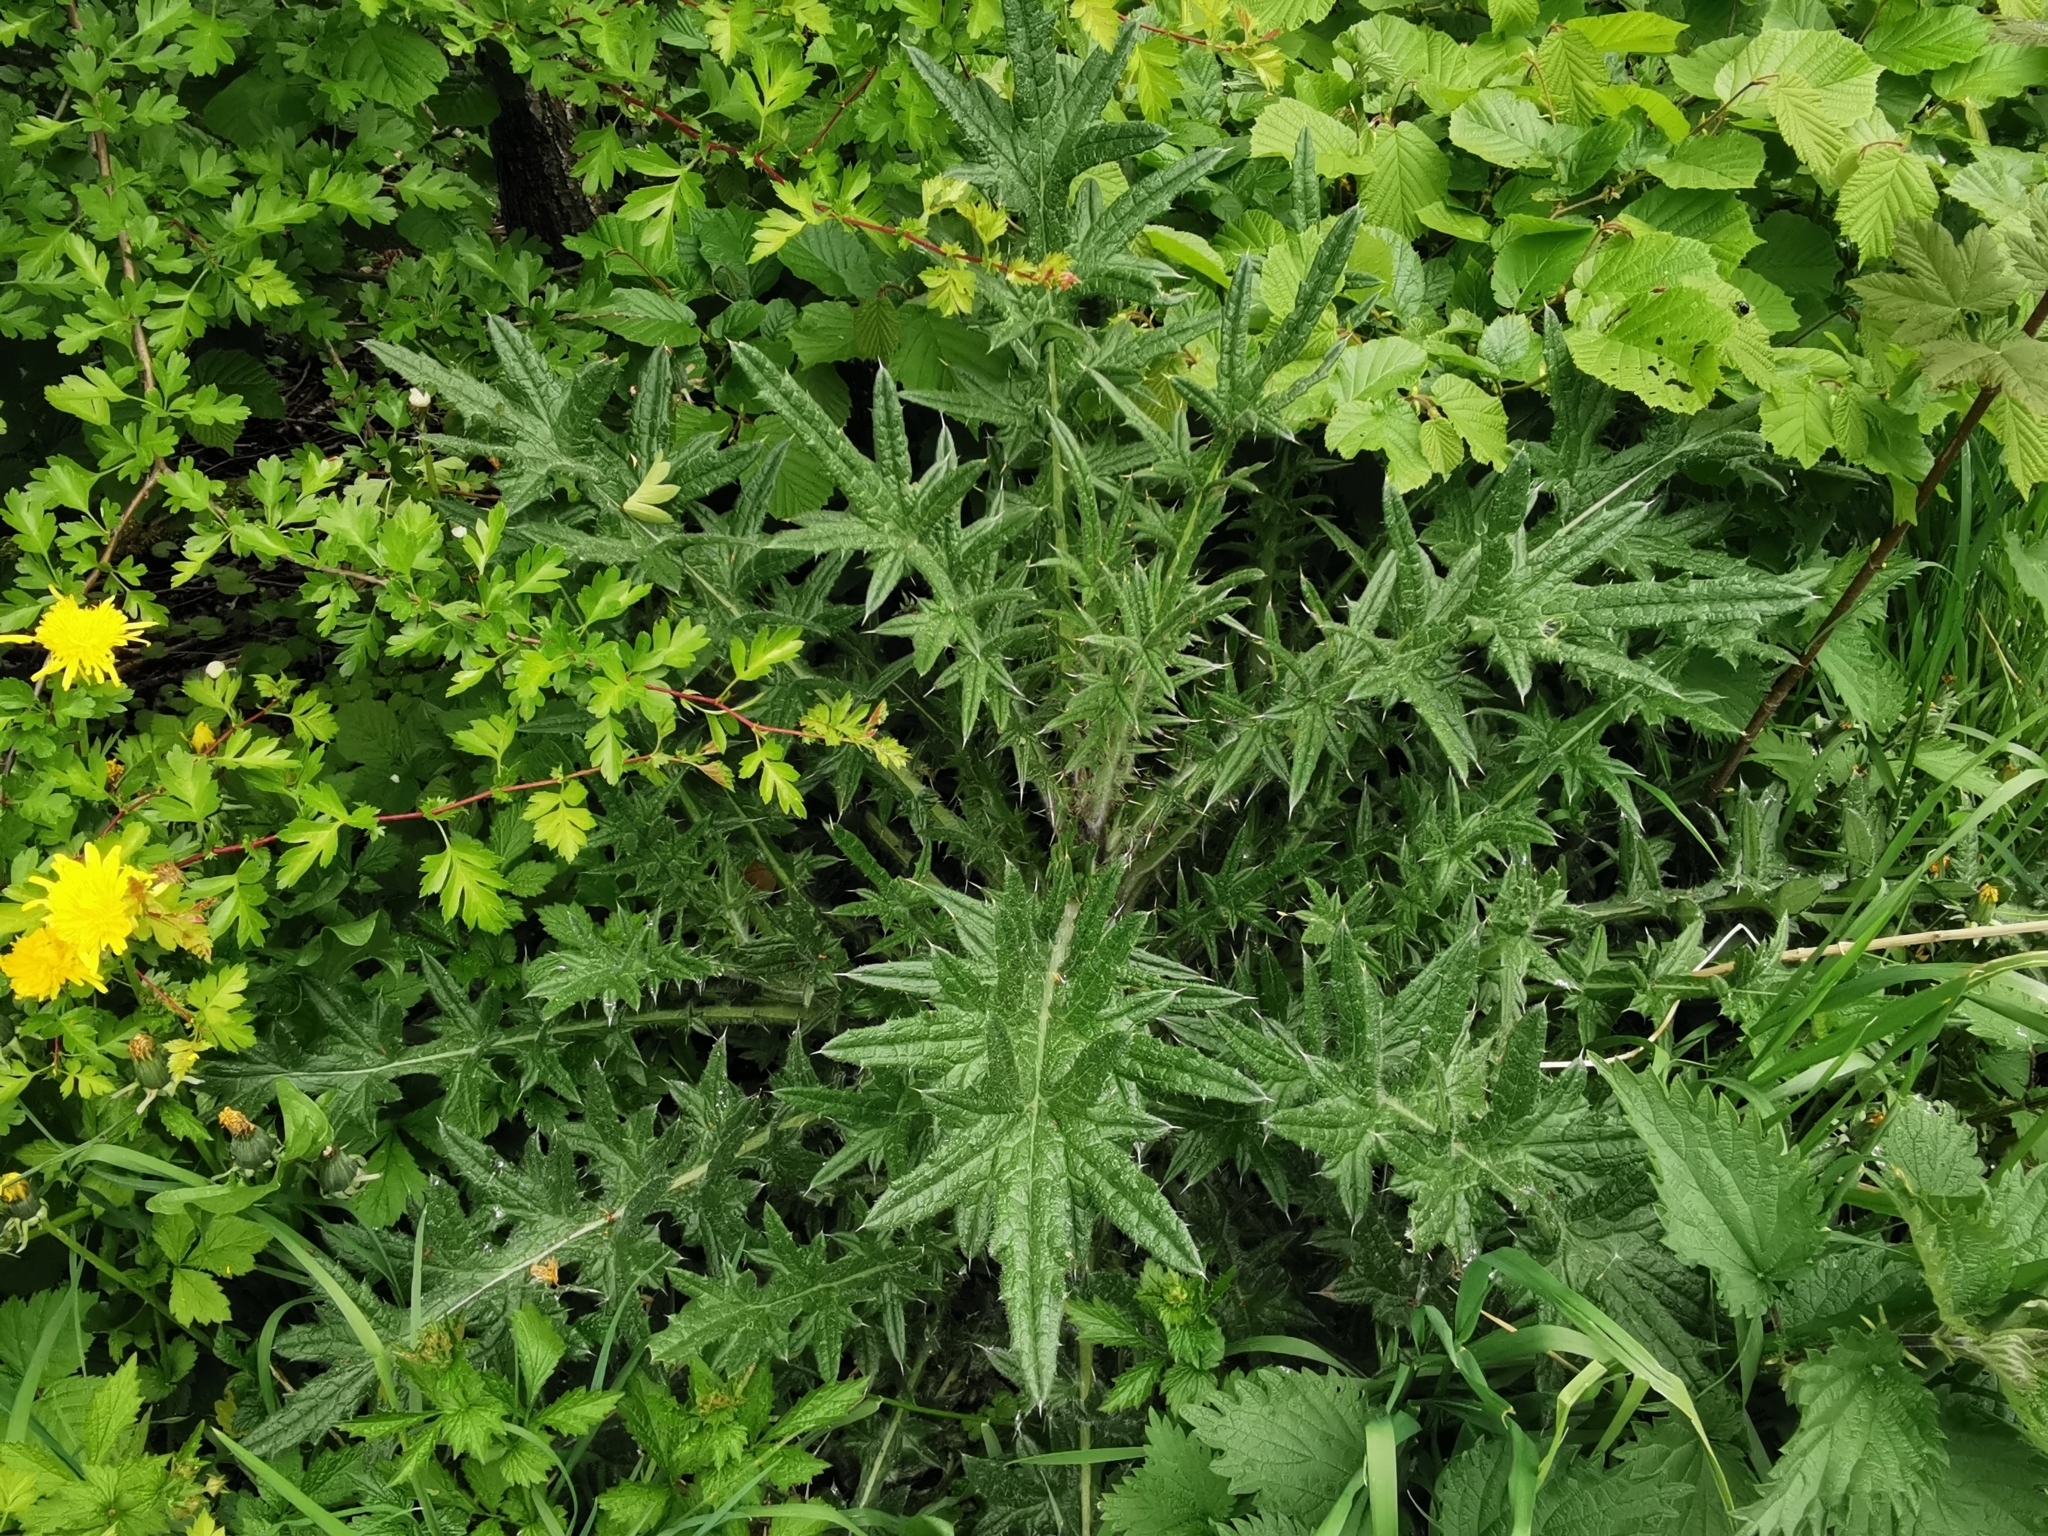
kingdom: Plantae
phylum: Tracheophyta
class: Magnoliopsida
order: Asterales
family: Asteraceae
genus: Cirsium
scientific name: Cirsium vulgare
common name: Bull thistle
